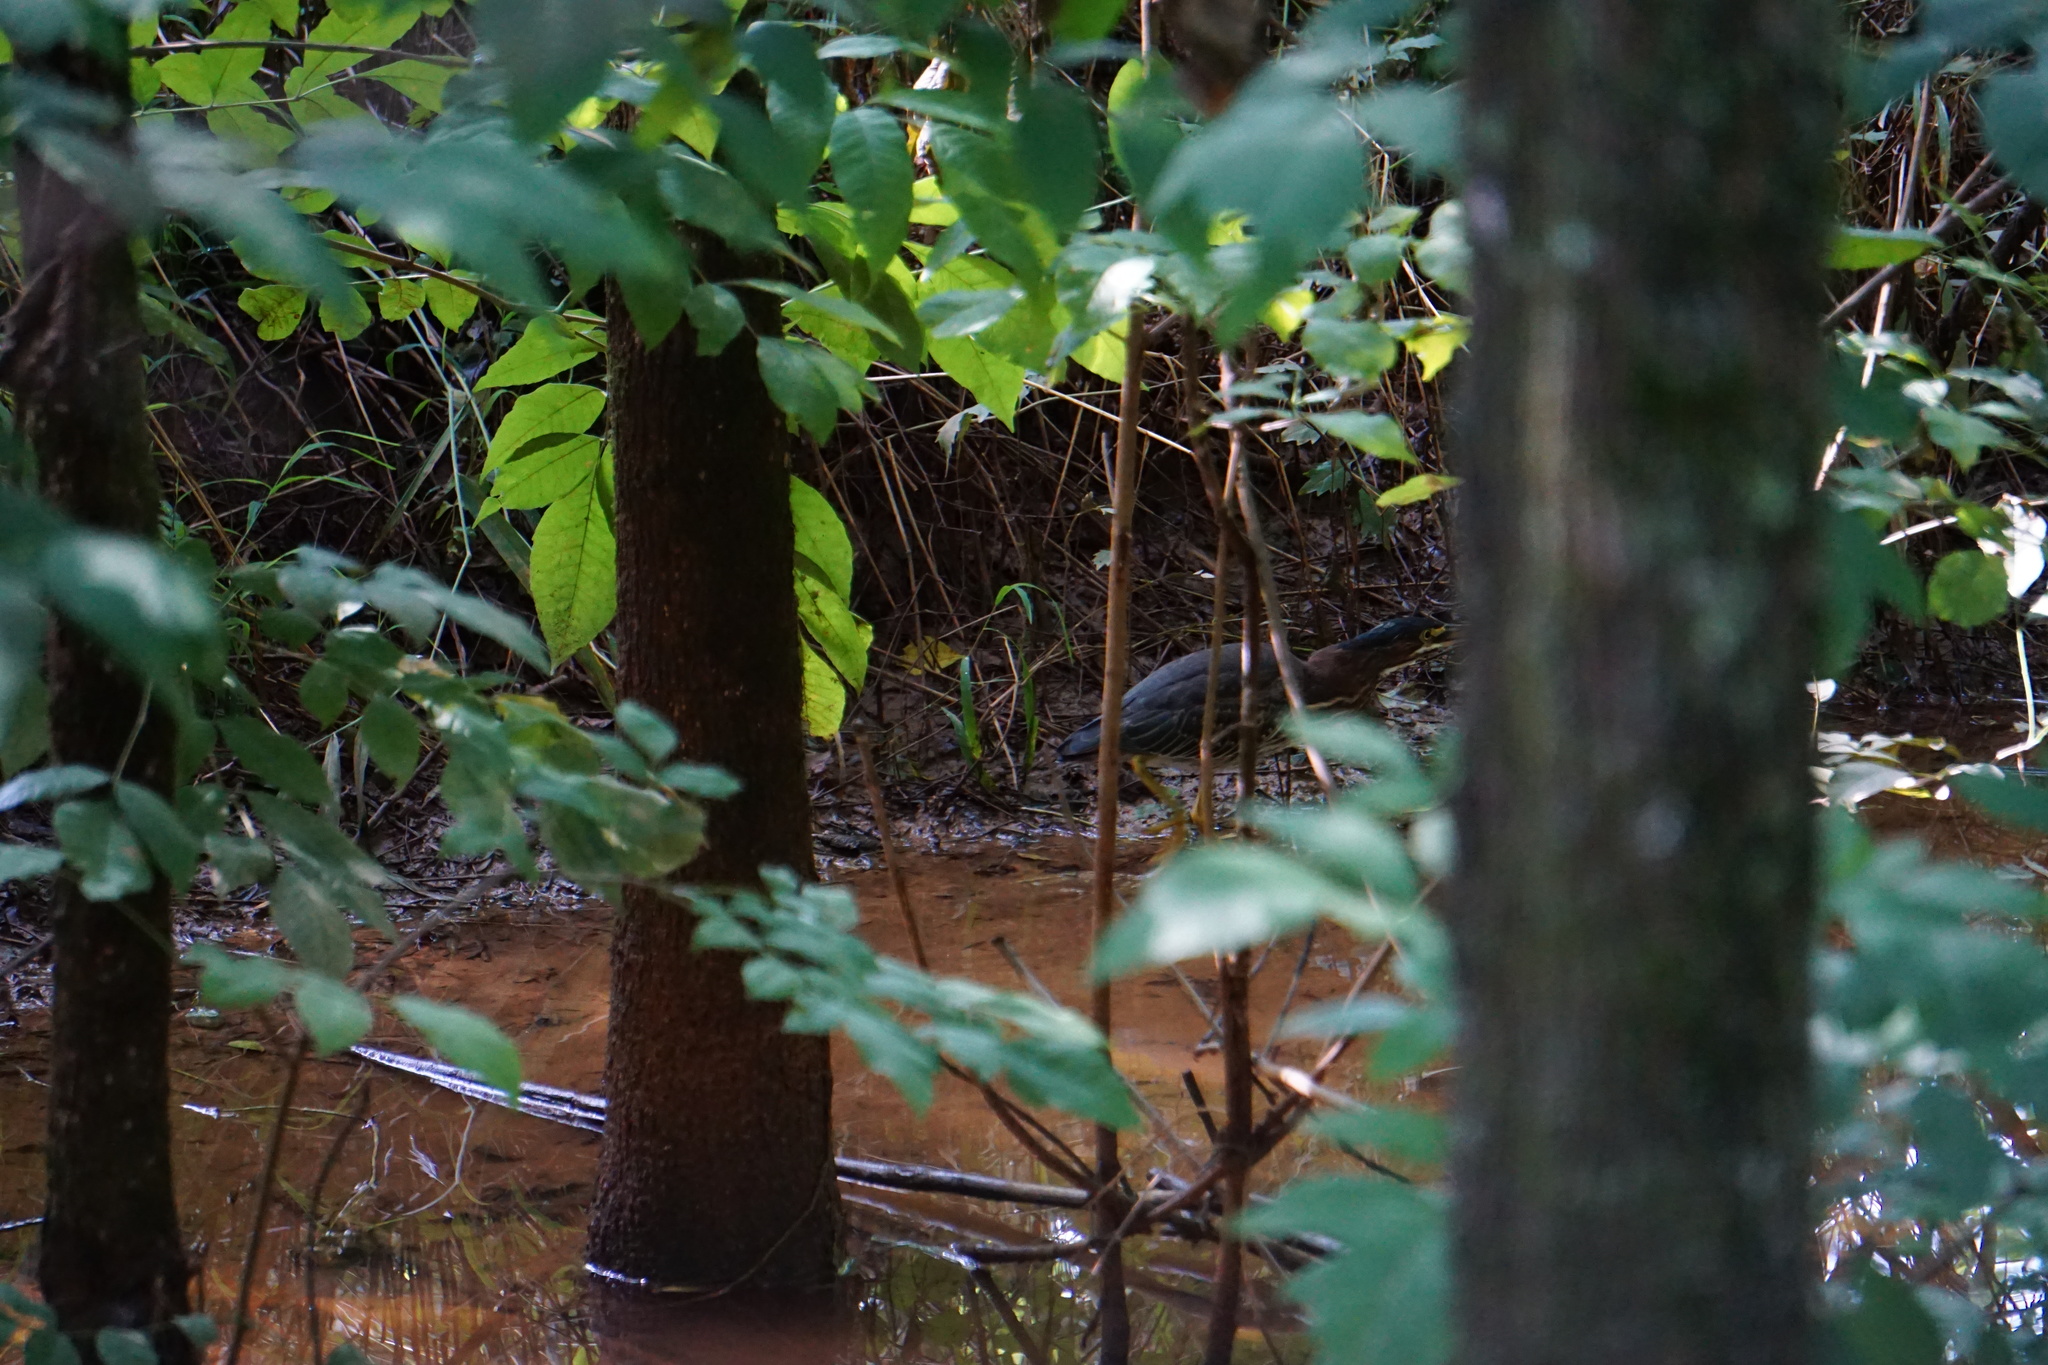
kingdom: Animalia
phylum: Chordata
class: Aves
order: Pelecaniformes
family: Ardeidae
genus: Butorides
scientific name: Butorides virescens
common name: Green heron
